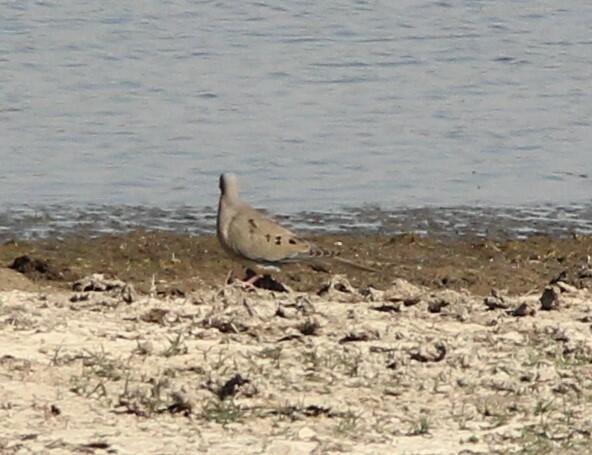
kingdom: Animalia
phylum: Chordata
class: Aves
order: Columbiformes
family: Columbidae
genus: Zenaida
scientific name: Zenaida macroura
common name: Mourning dove
